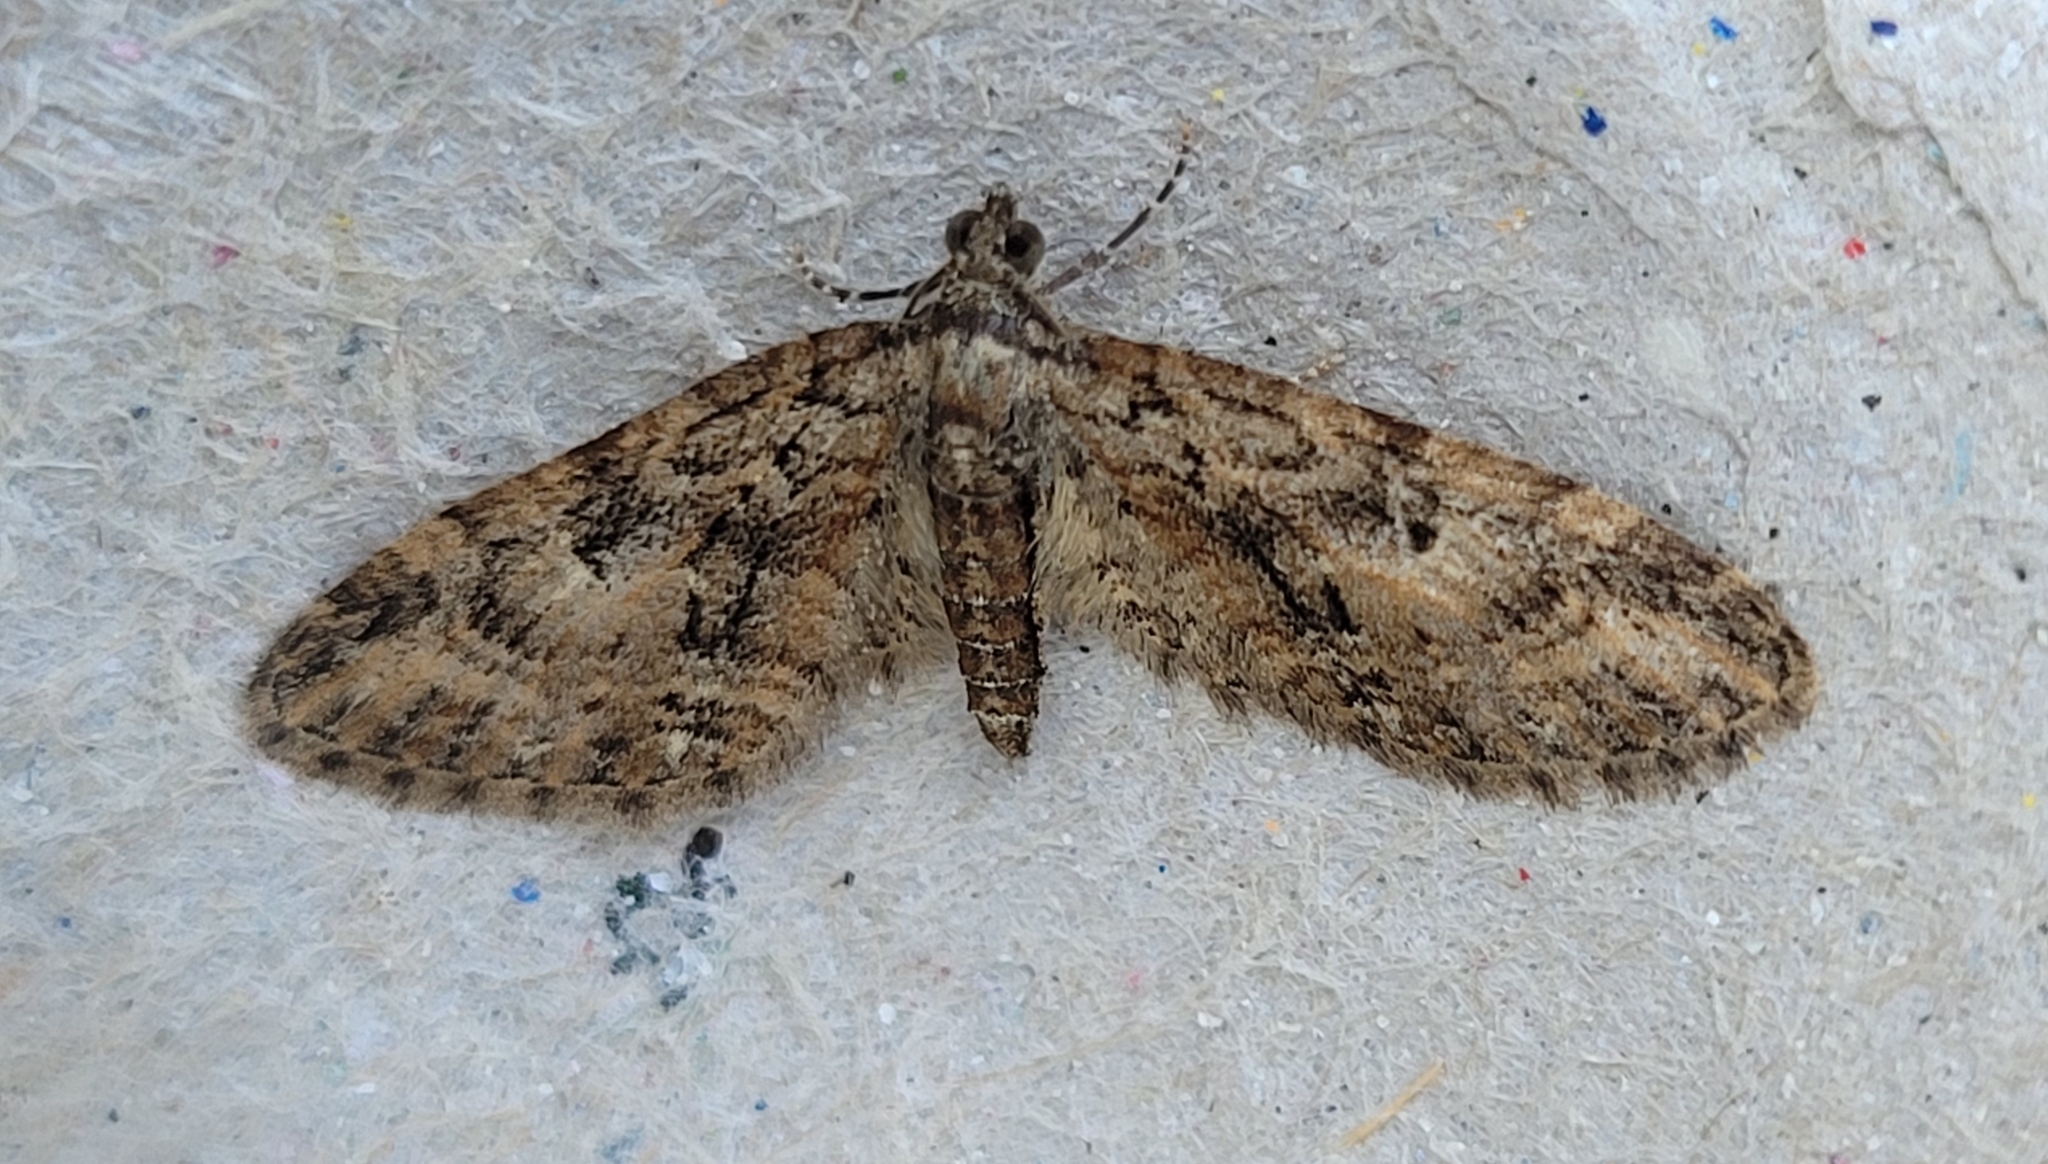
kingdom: Animalia
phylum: Arthropoda
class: Insecta
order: Lepidoptera
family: Geometridae
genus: Eupithecia
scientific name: Eupithecia abbreviata
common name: Brindled pug
